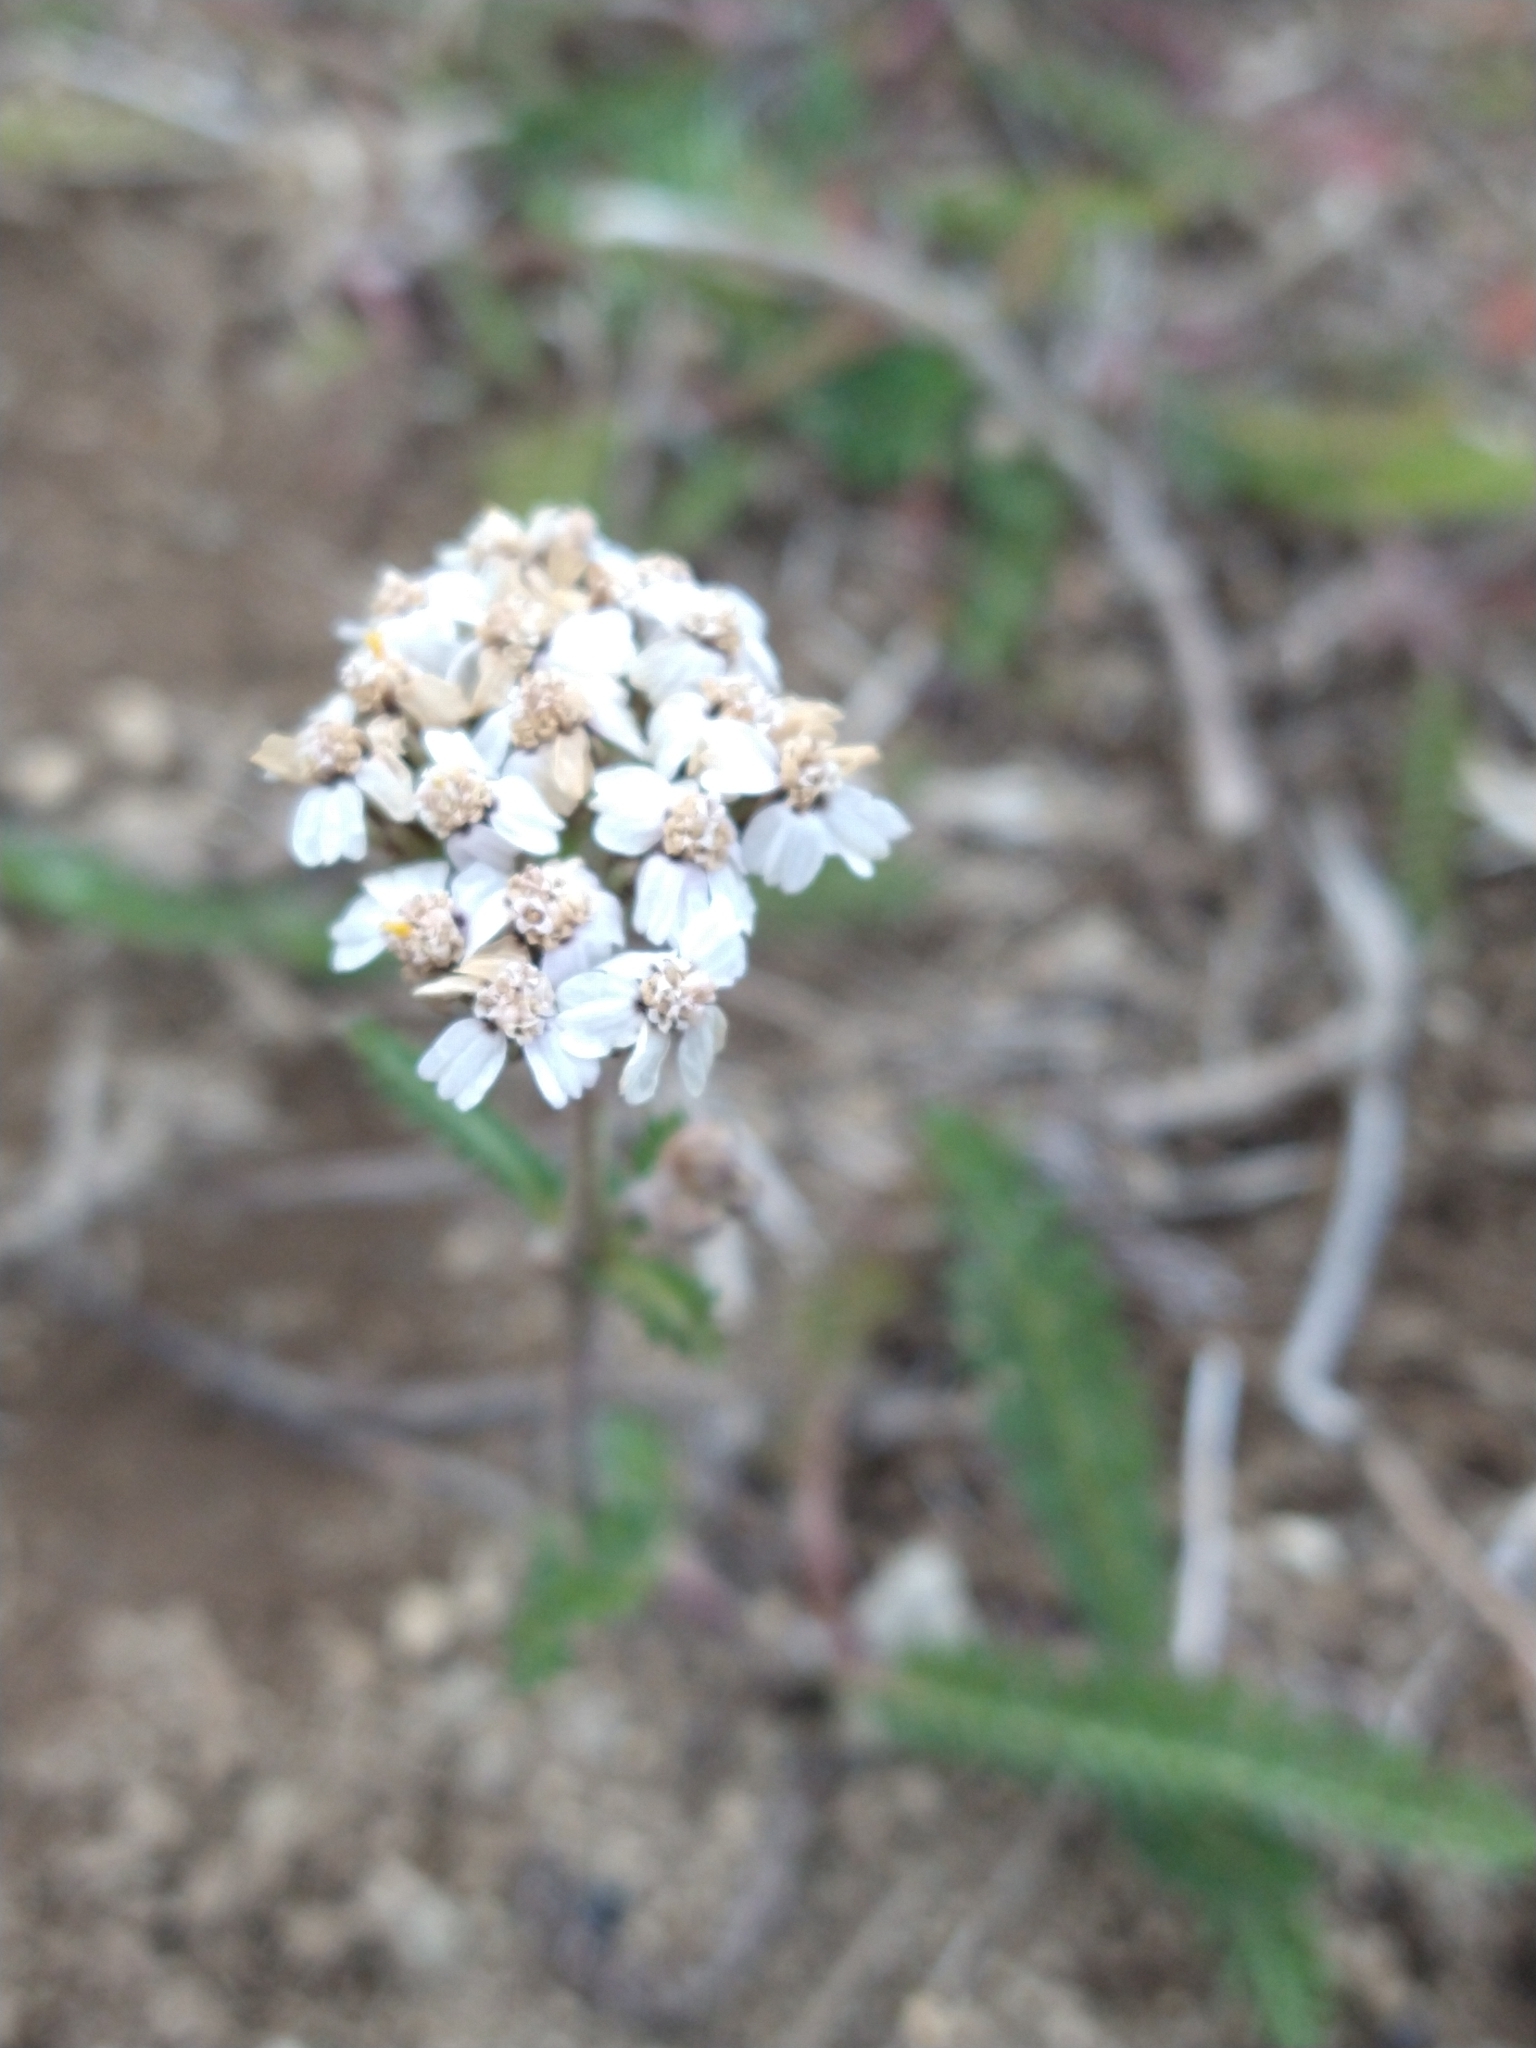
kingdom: Plantae
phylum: Tracheophyta
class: Magnoliopsida
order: Asterales
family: Asteraceae
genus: Achillea
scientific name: Achillea millefolium
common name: Yarrow
